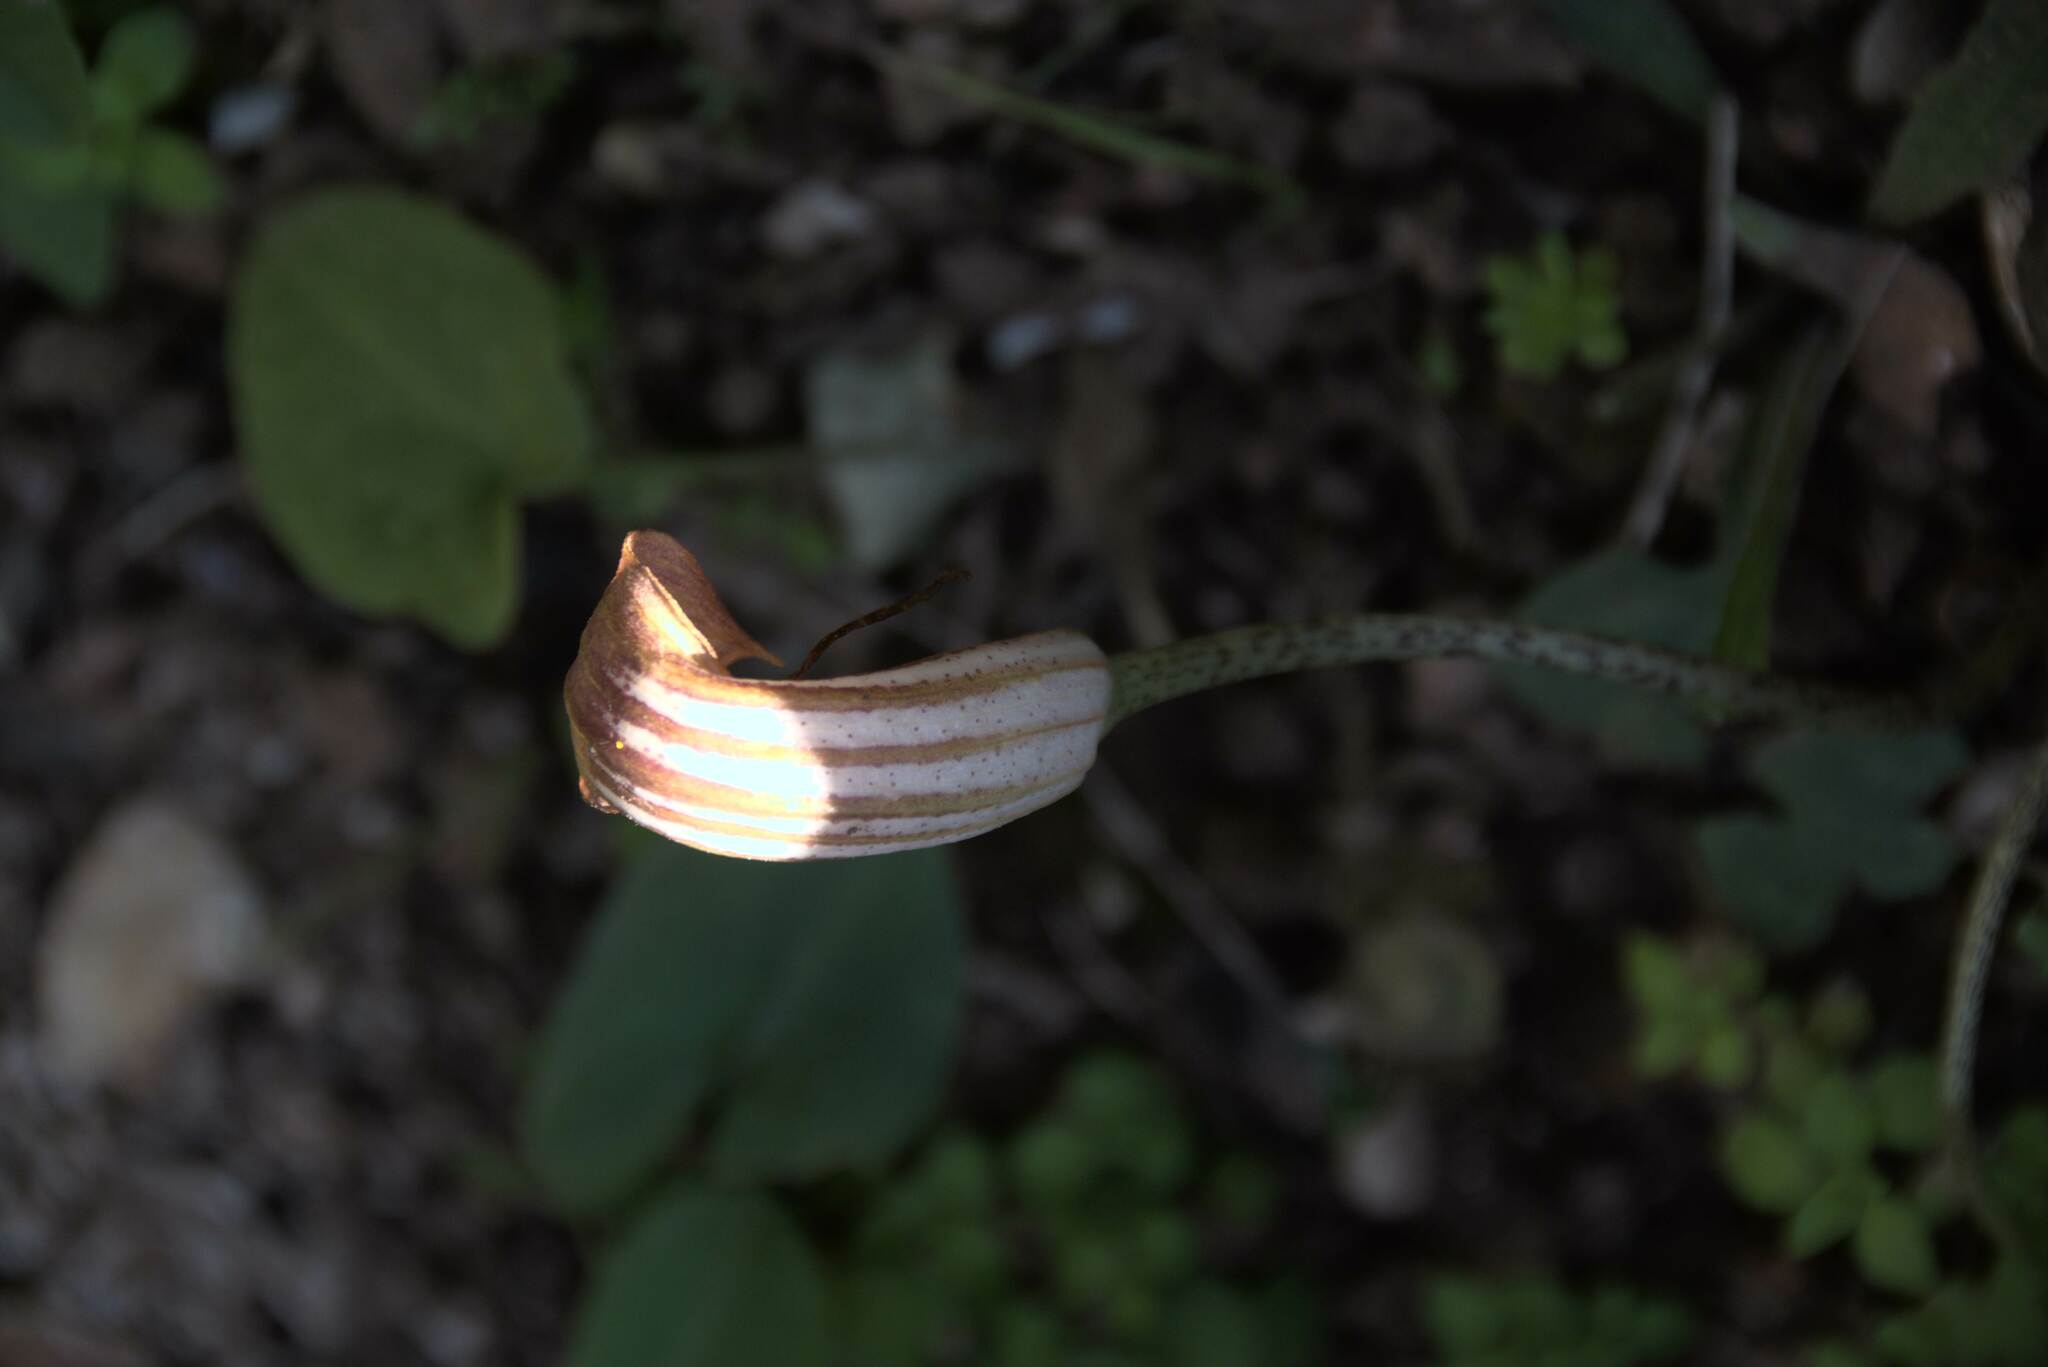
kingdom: Plantae
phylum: Tracheophyta
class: Liliopsida
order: Alismatales
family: Araceae
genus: Arisarum
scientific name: Arisarum vulgare
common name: Common arisarum
